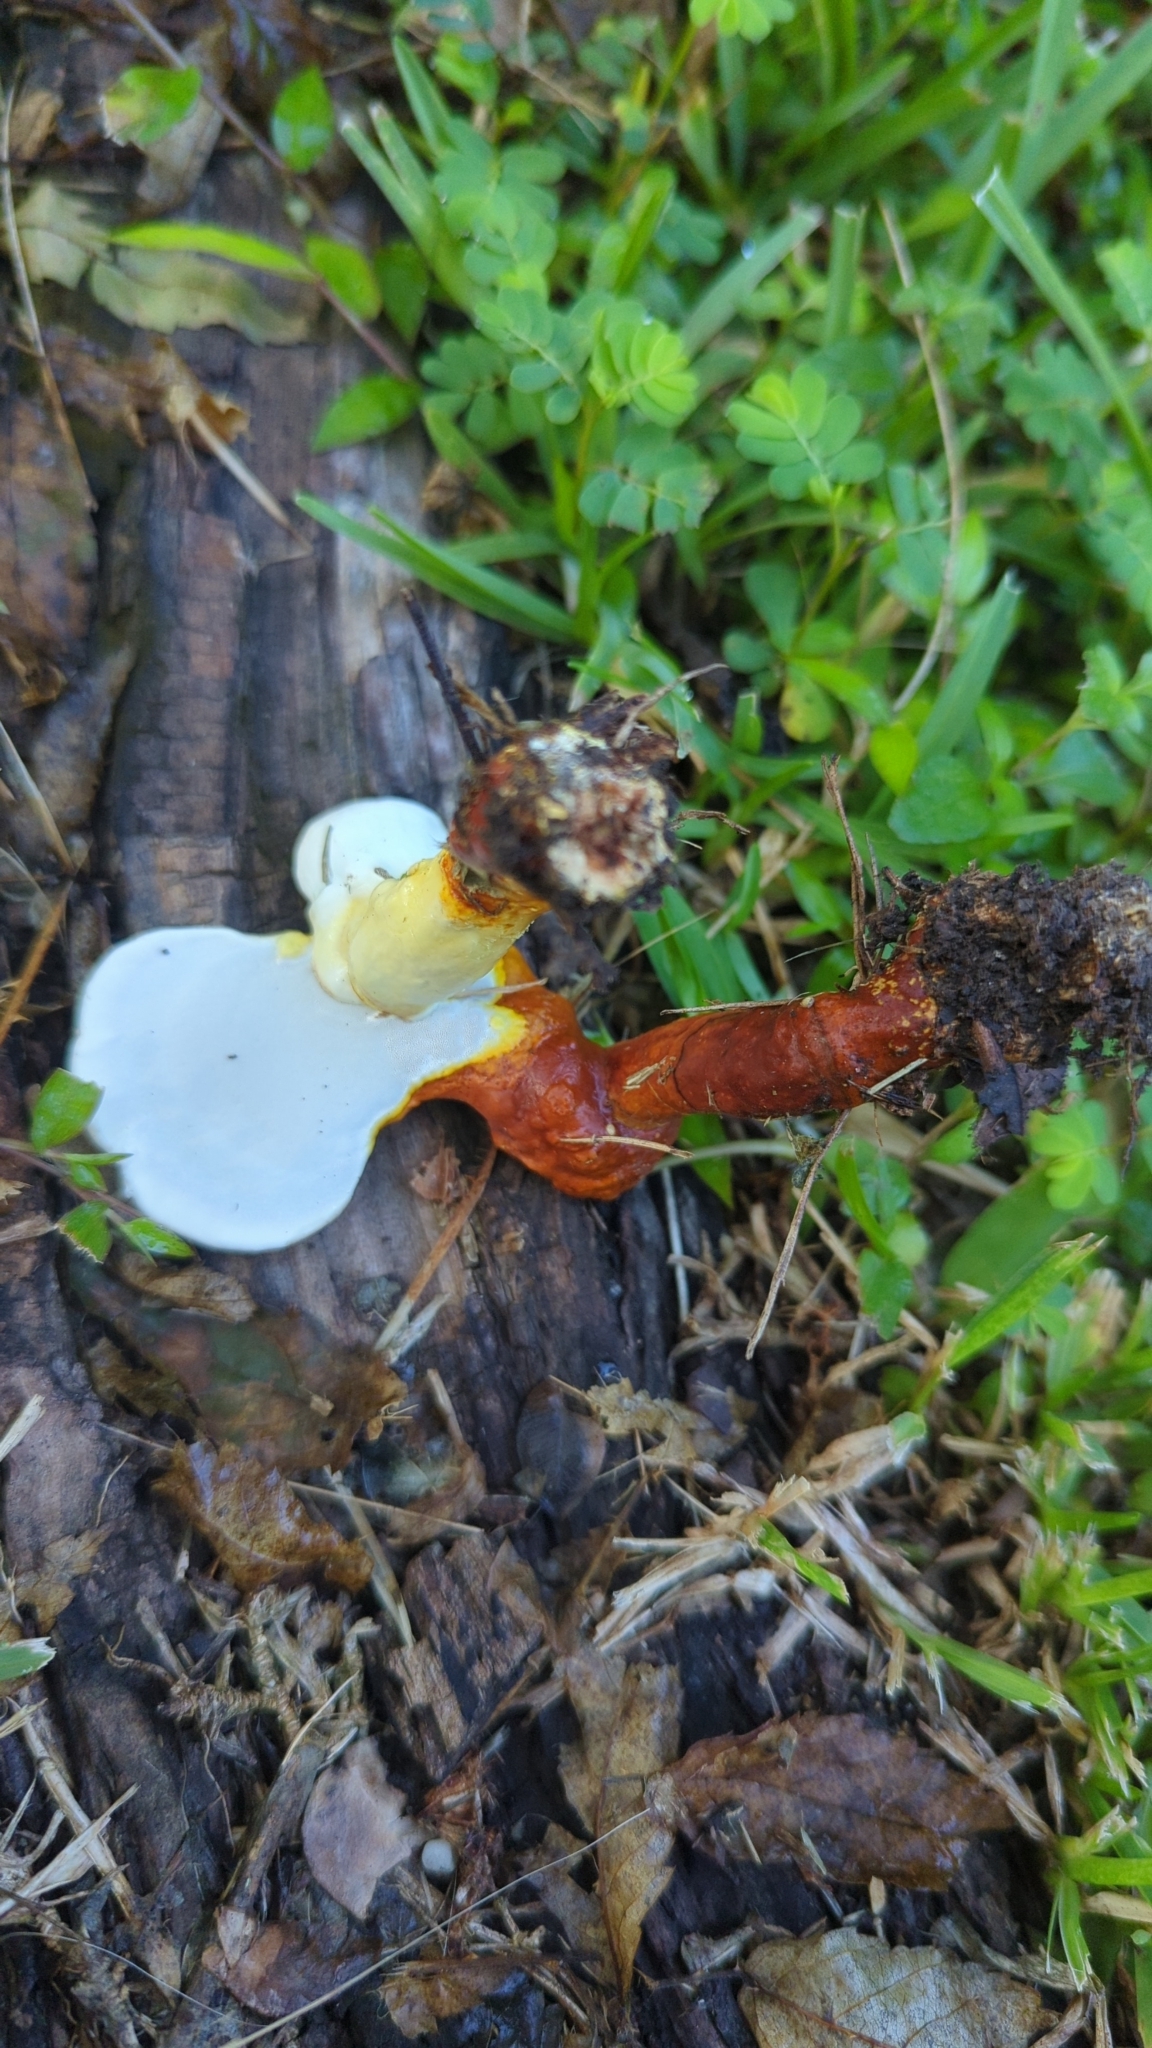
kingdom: Fungi
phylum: Basidiomycota
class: Agaricomycetes
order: Polyporales
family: Polyporaceae
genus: Ganoderma
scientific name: Ganoderma curtisii
